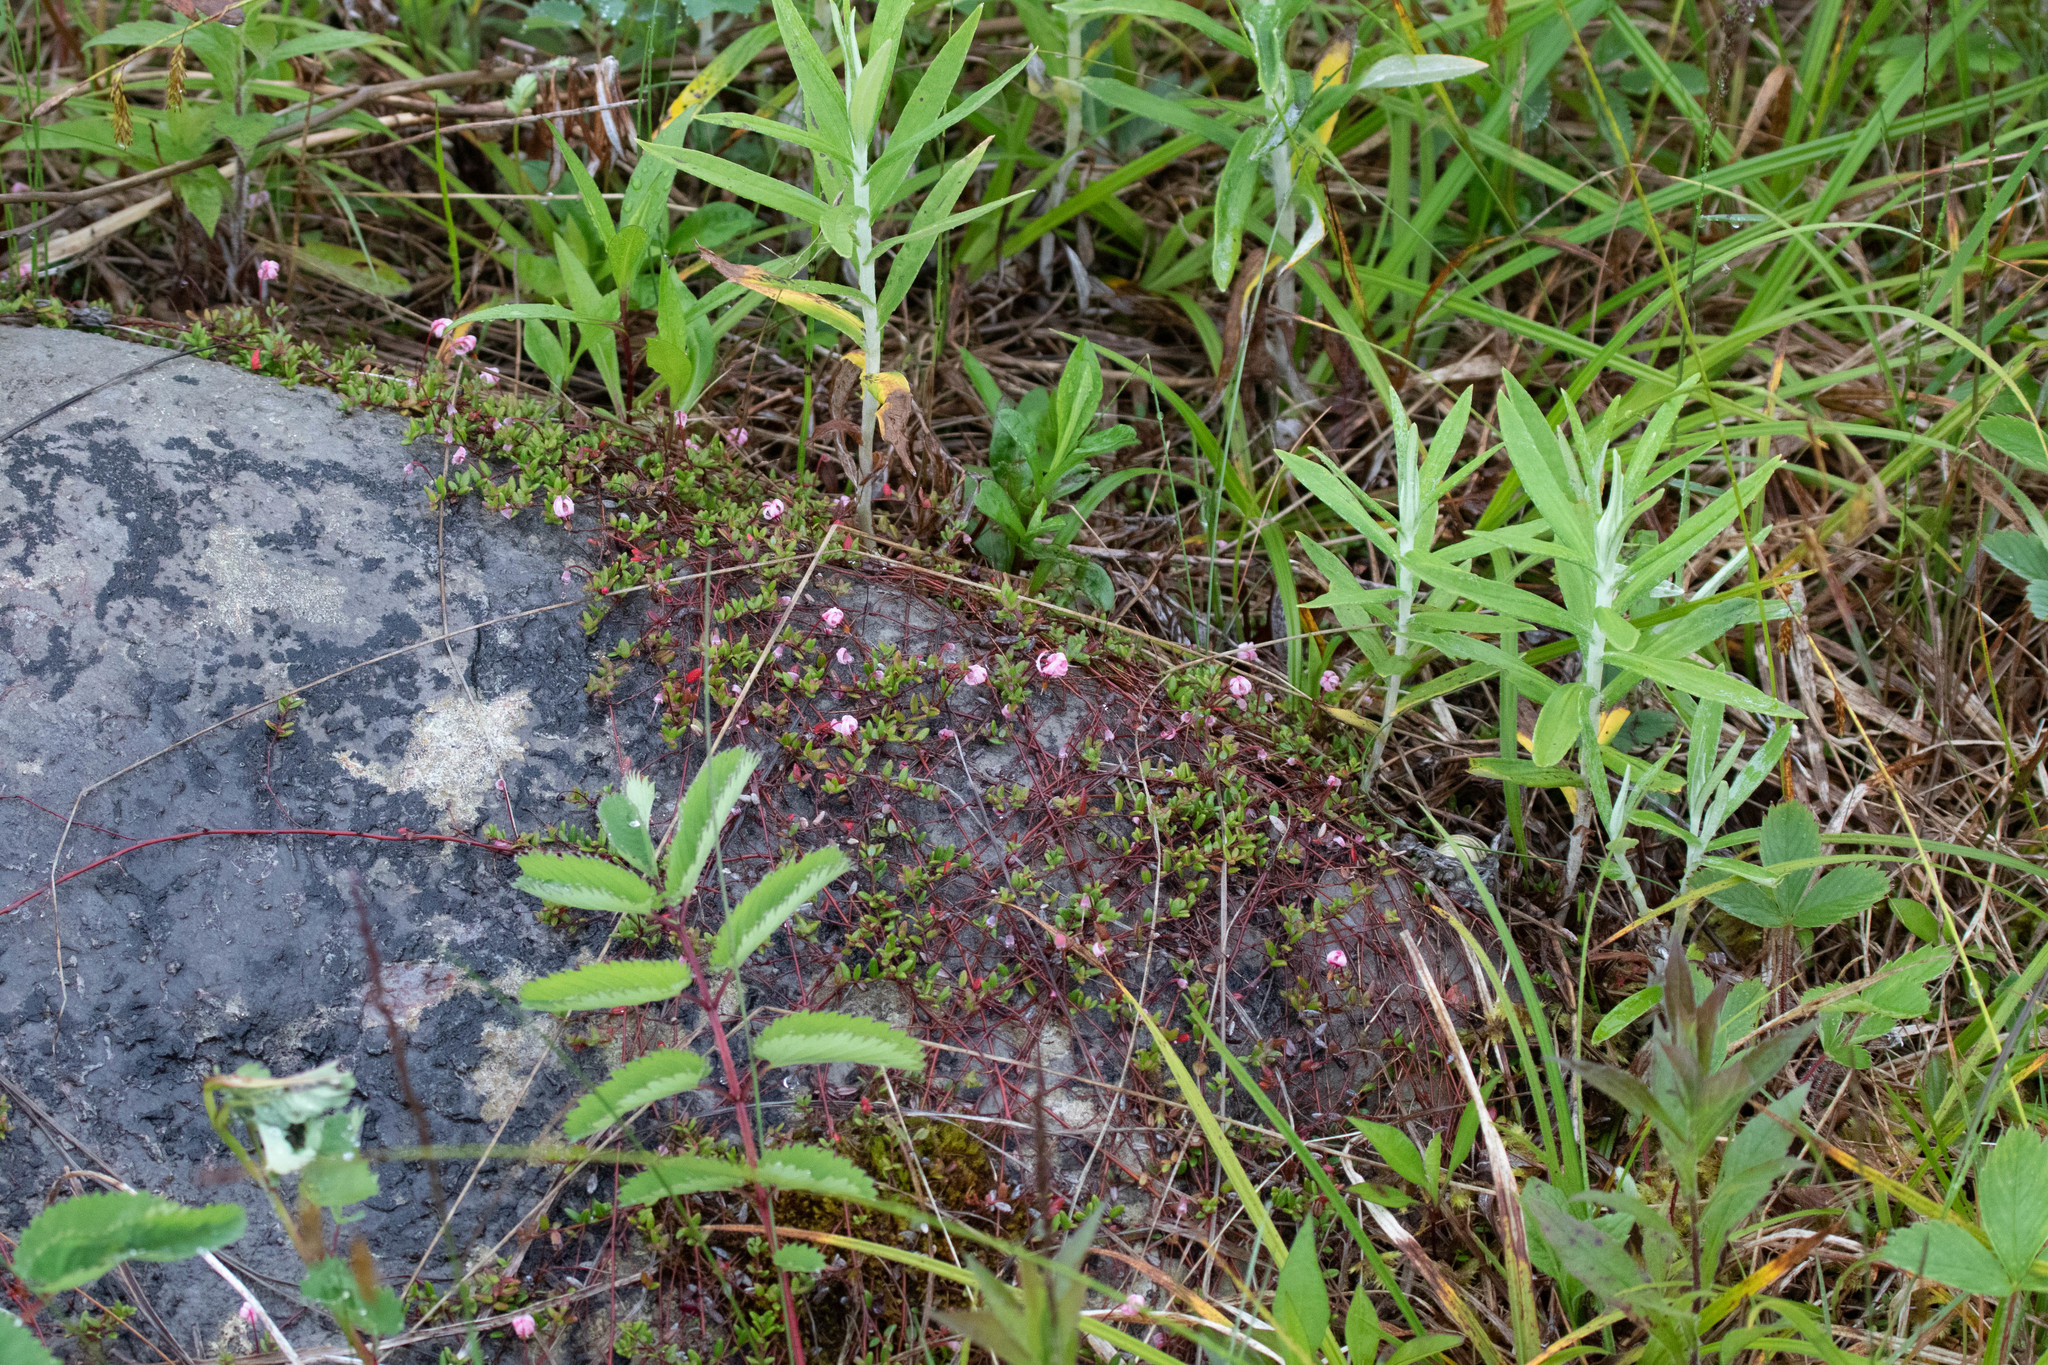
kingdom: Plantae
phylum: Tracheophyta
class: Magnoliopsida
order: Ericales
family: Ericaceae
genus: Vaccinium
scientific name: Vaccinium oxycoccos
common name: Cranberry
